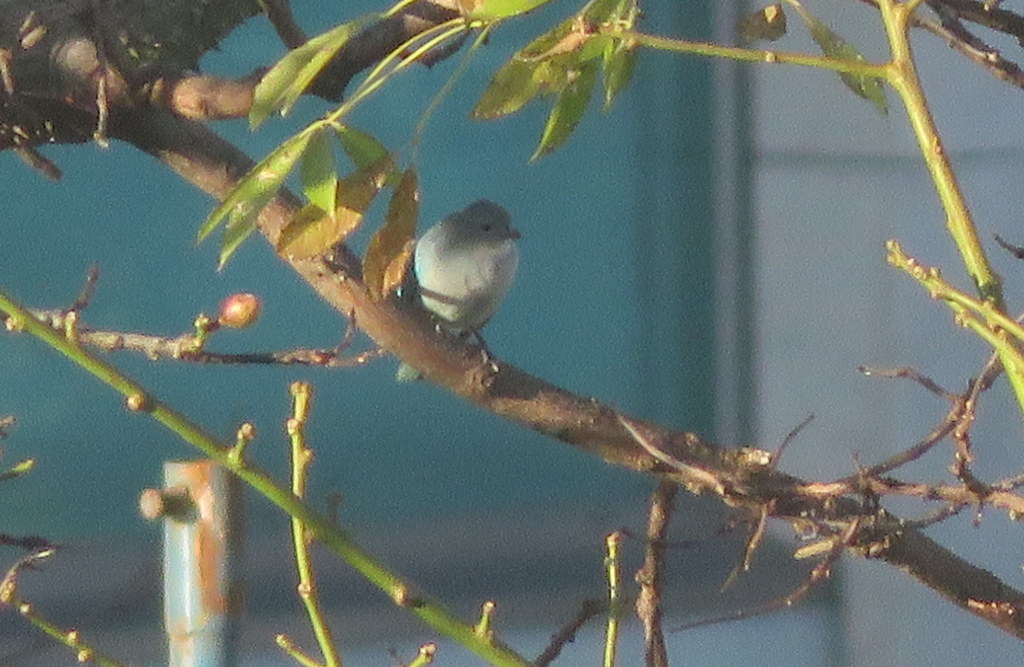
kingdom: Animalia
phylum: Chordata
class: Aves
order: Passeriformes
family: Thraupidae
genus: Thraupis
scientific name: Thraupis sayaca
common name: Sayaca tanager
